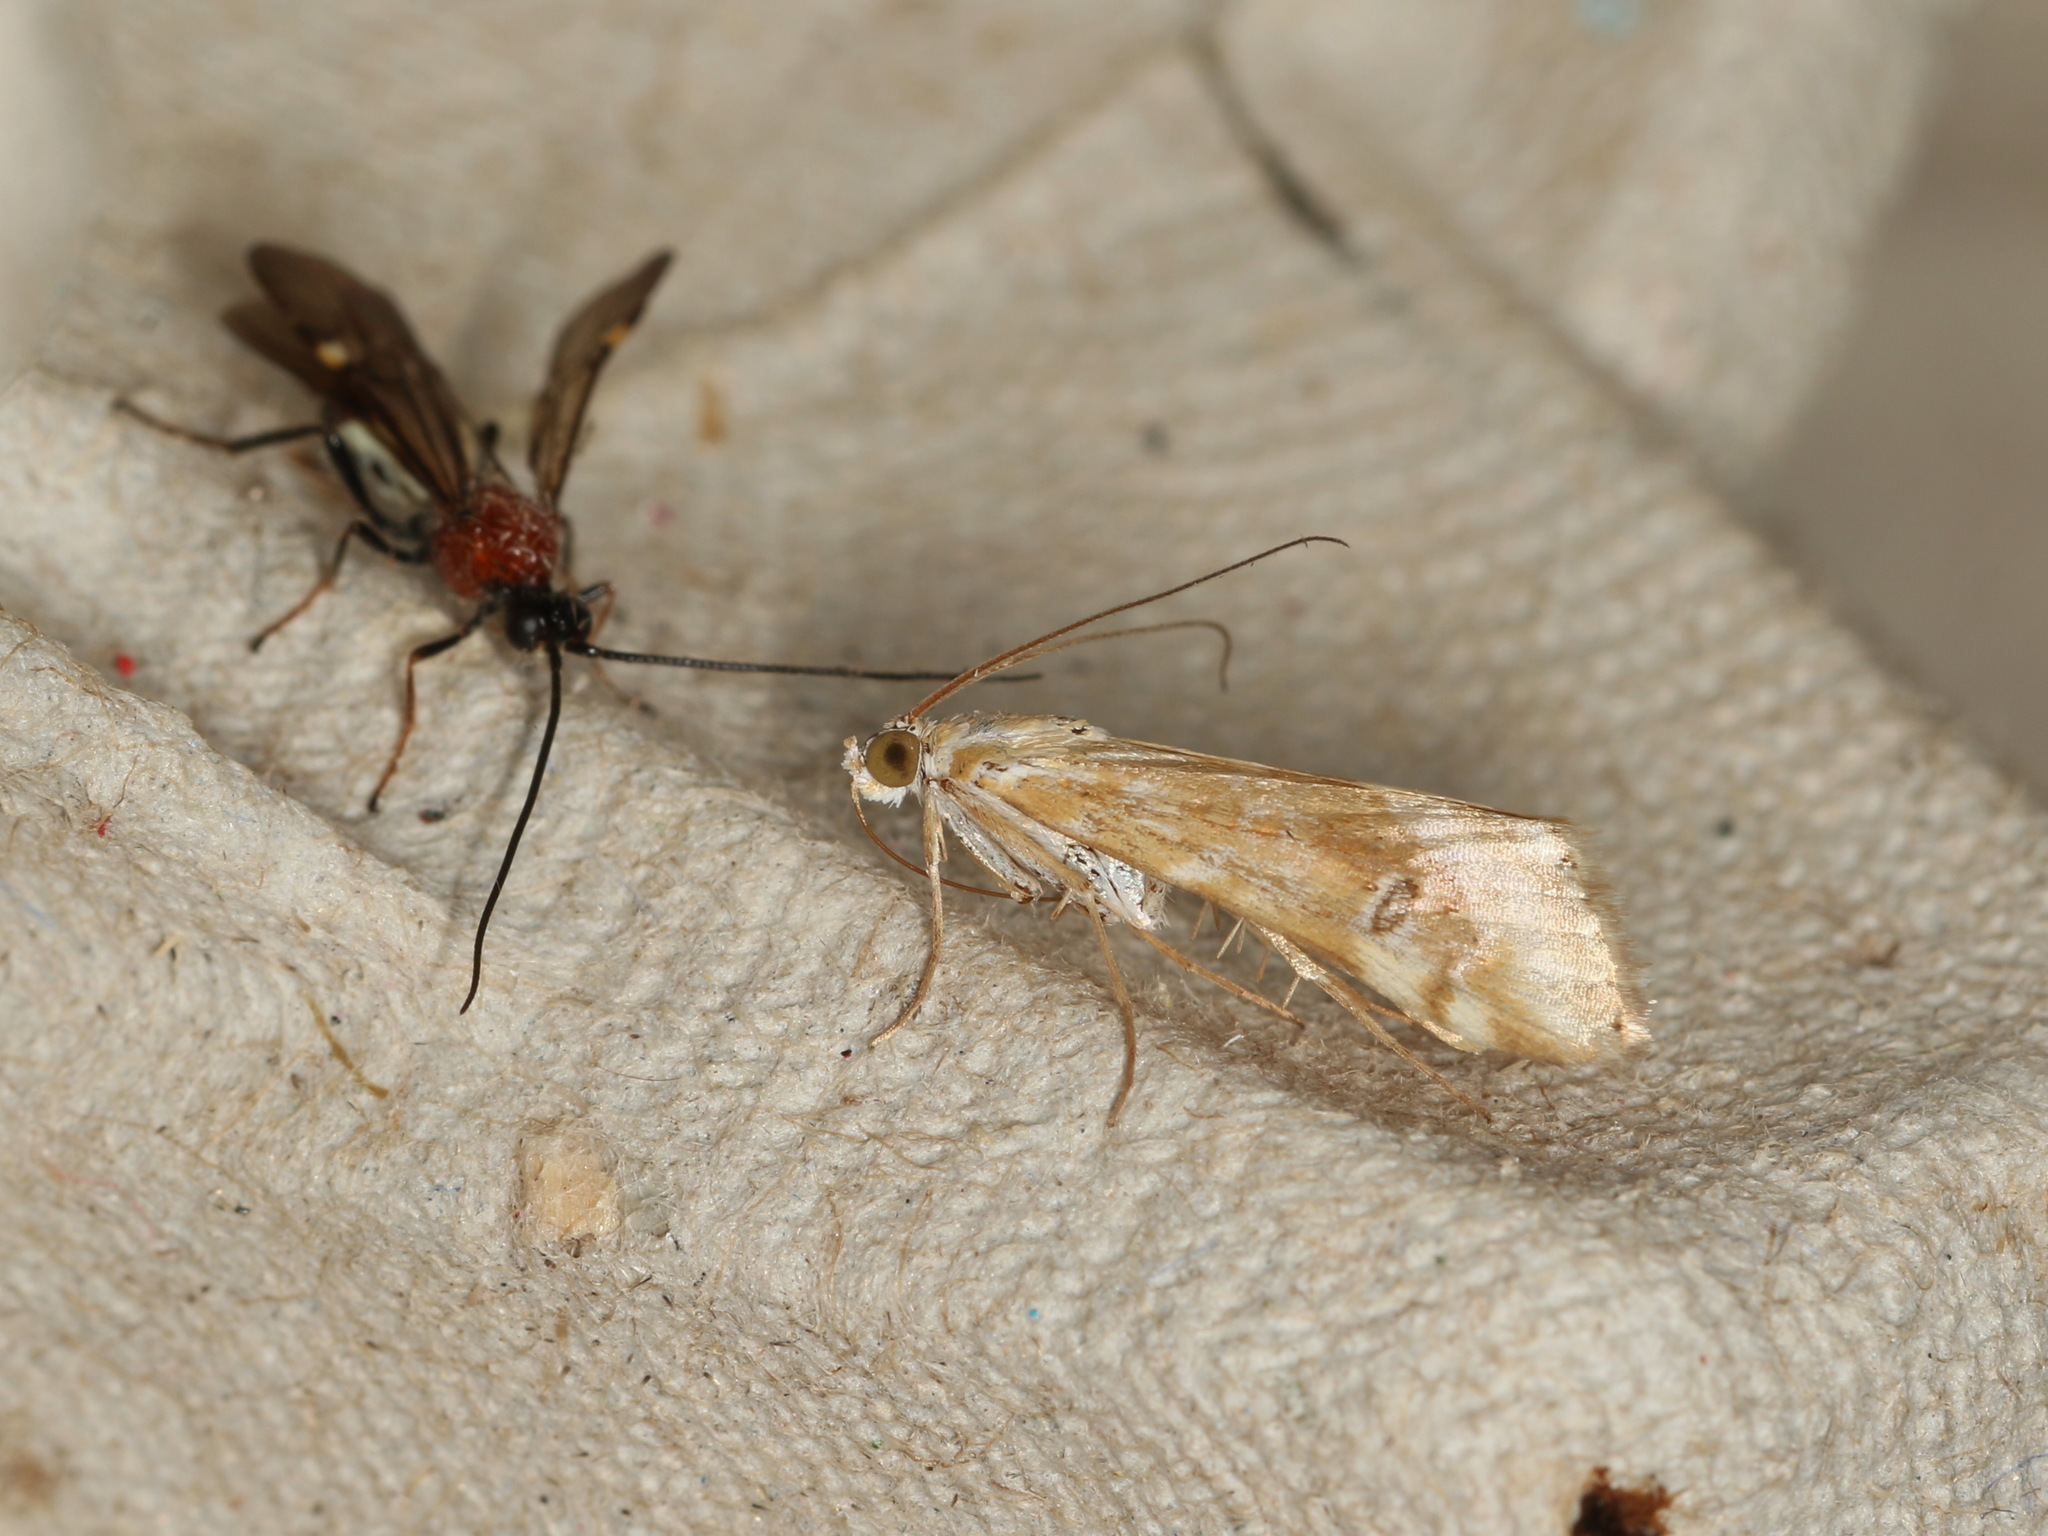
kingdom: Animalia
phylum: Arthropoda
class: Insecta
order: Lepidoptera
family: Crambidae
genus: Hellula
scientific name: Hellula hydralis
